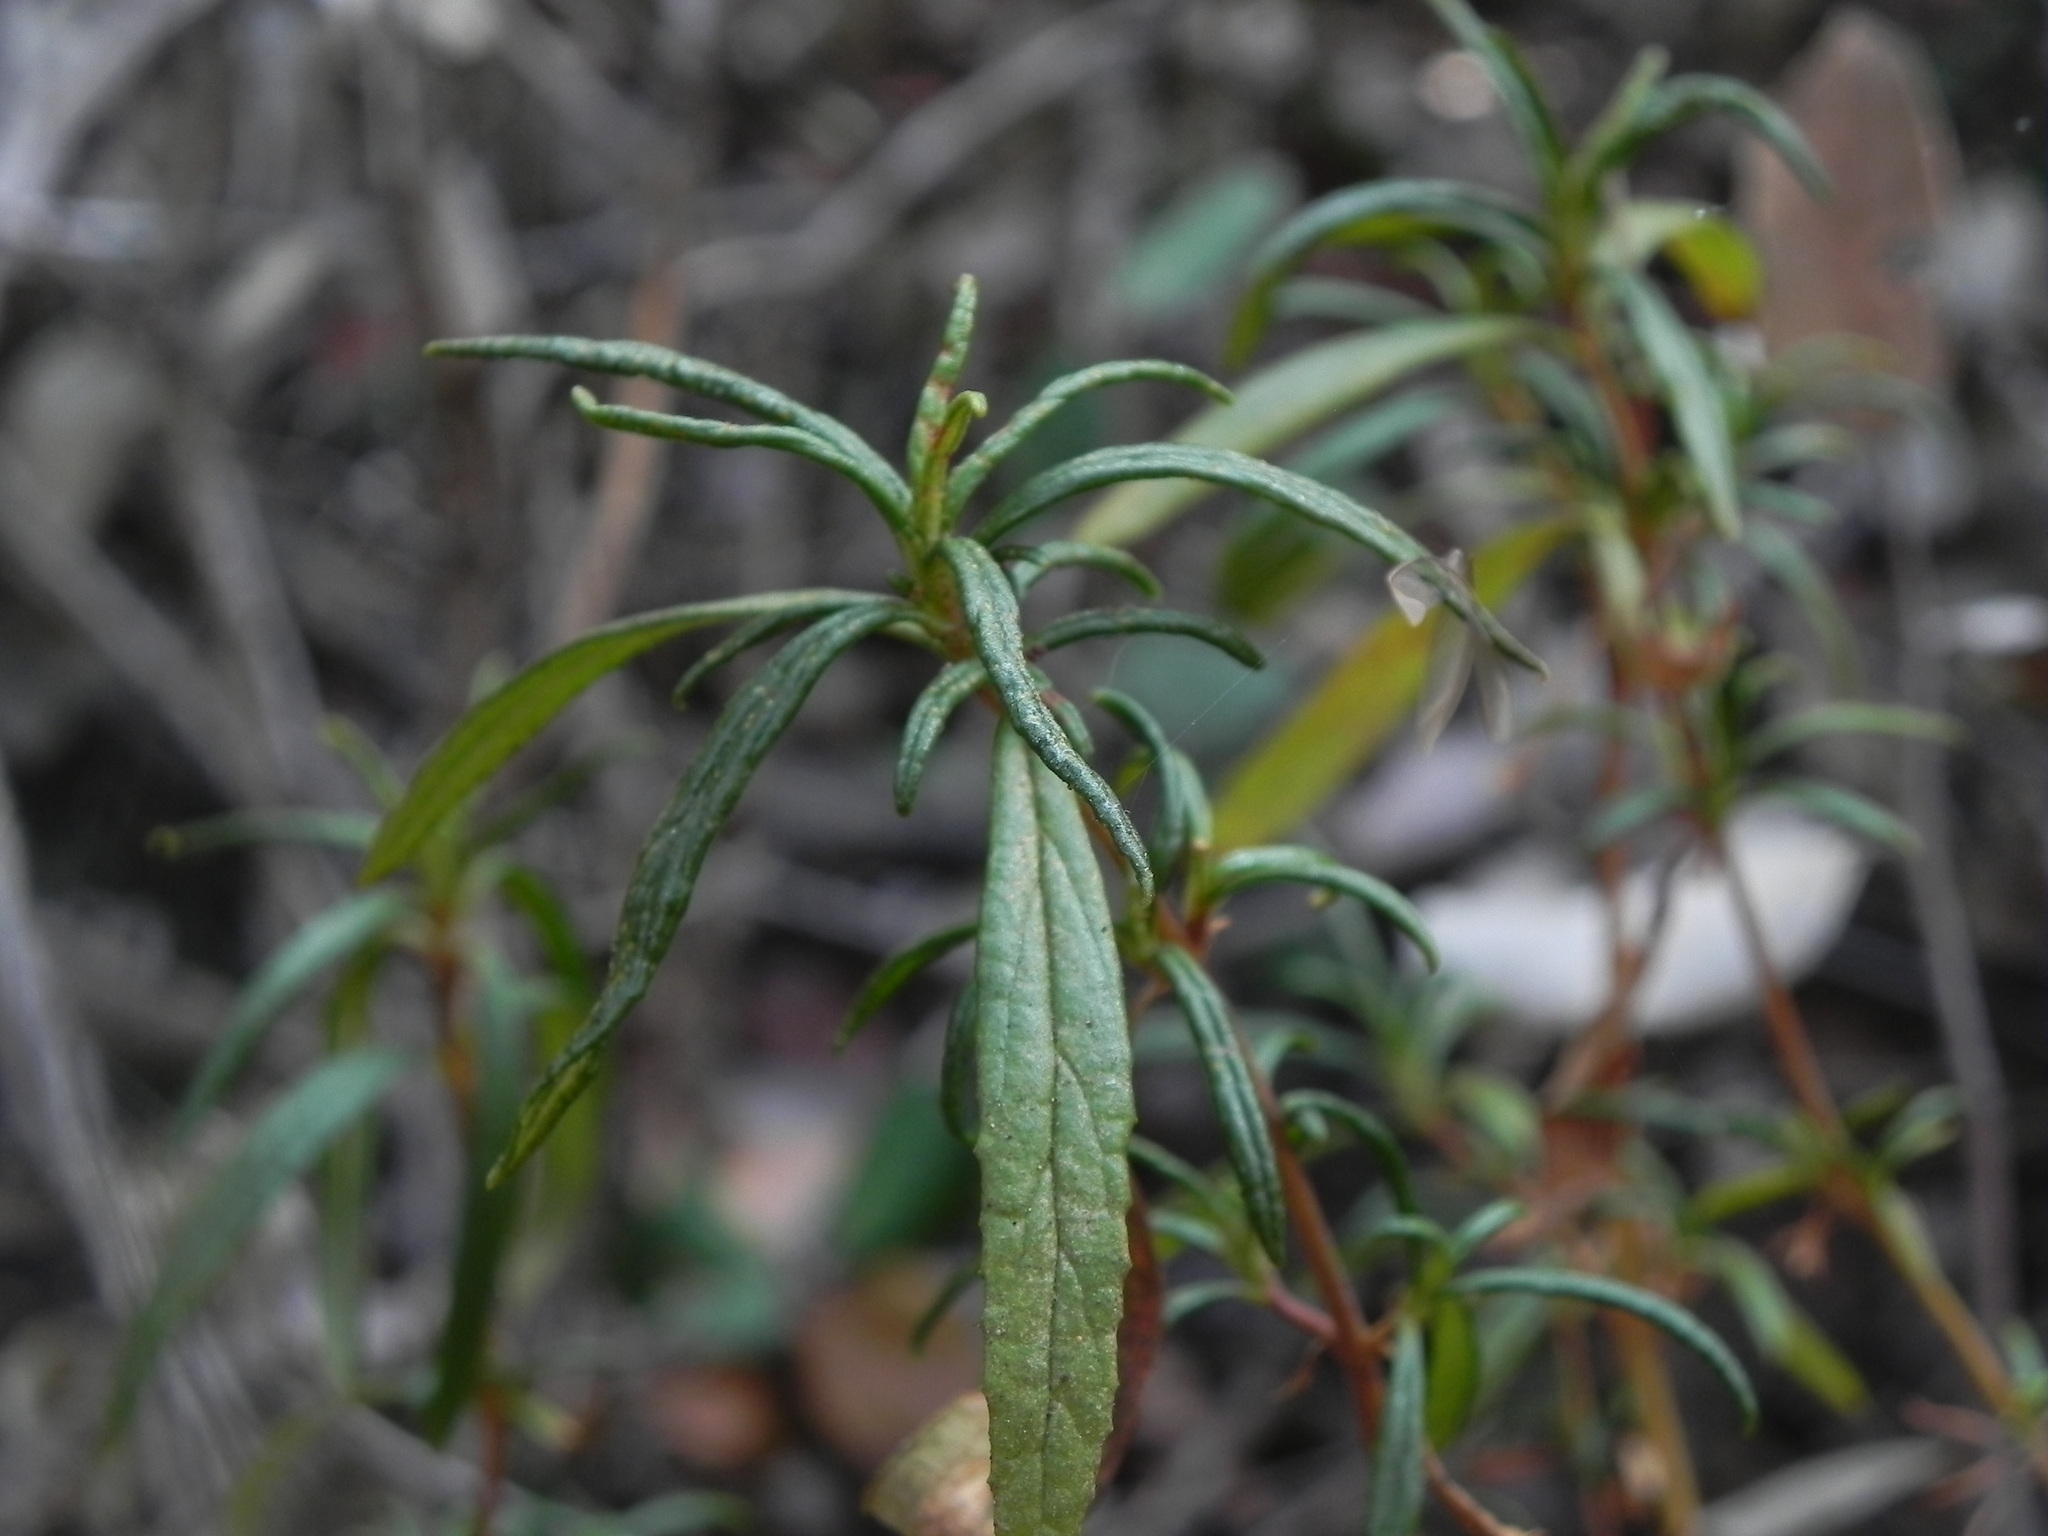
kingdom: Plantae
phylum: Tracheophyta
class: Magnoliopsida
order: Lamiales
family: Phrymaceae
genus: Diplacus
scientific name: Diplacus puniceus
